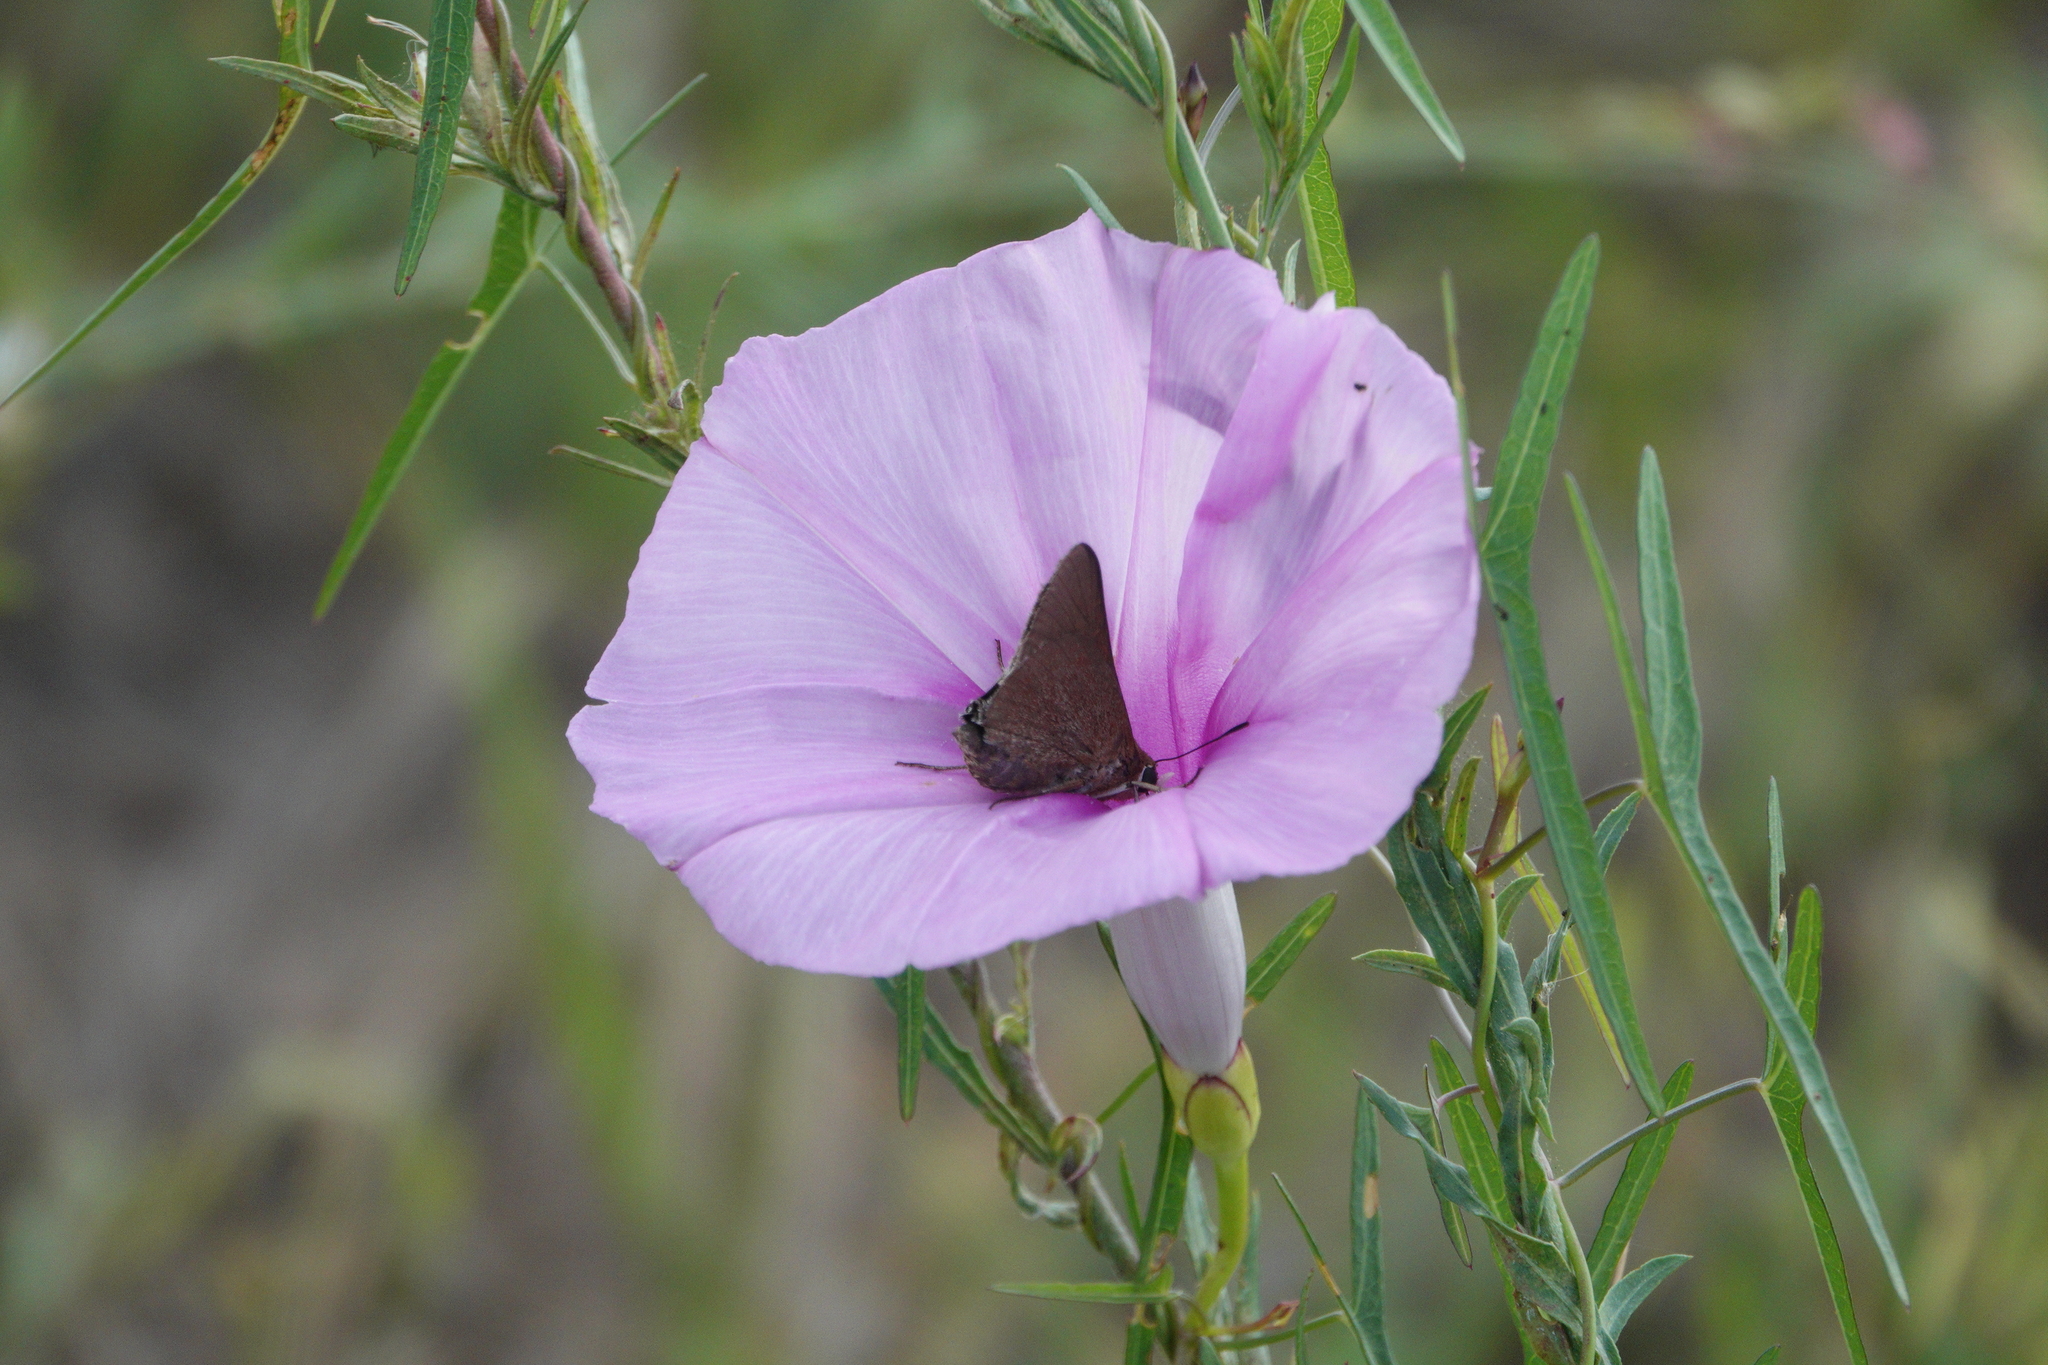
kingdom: Animalia
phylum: Arthropoda
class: Insecta
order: Lepidoptera
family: Hesperiidae
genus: Asbolis
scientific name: Asbolis capucinus
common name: Monk skipper
